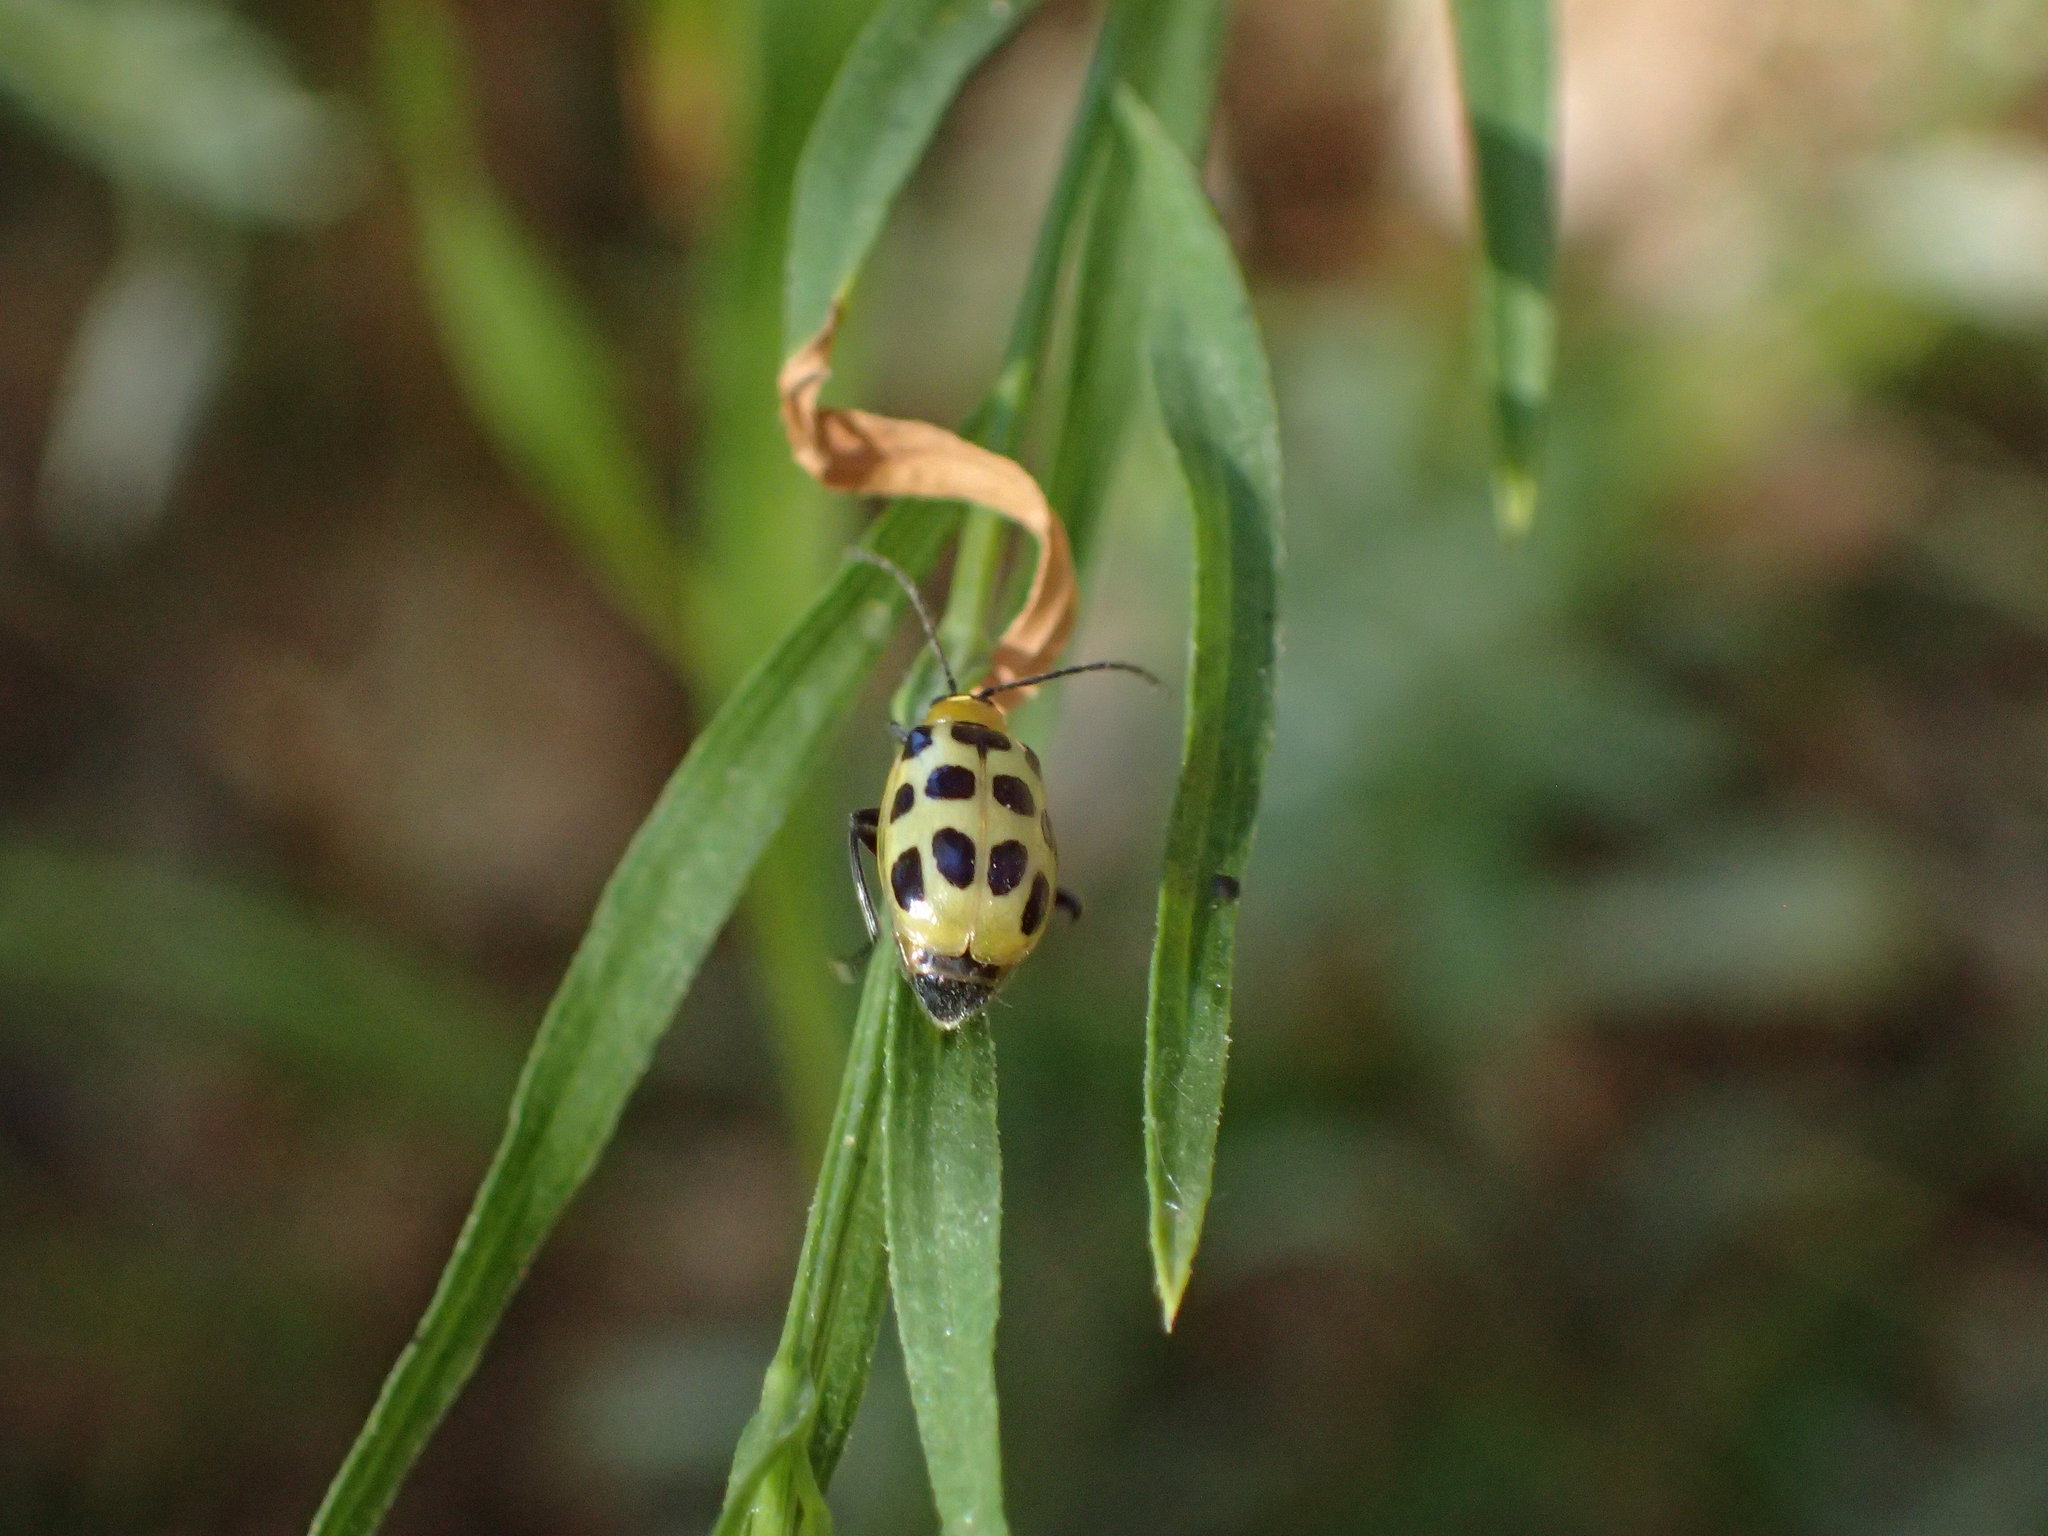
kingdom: Animalia
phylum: Arthropoda
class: Insecta
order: Coleoptera
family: Chrysomelidae
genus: Diabrotica
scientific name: Diabrotica undecimpunctata
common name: Spotted cucumber beetle
